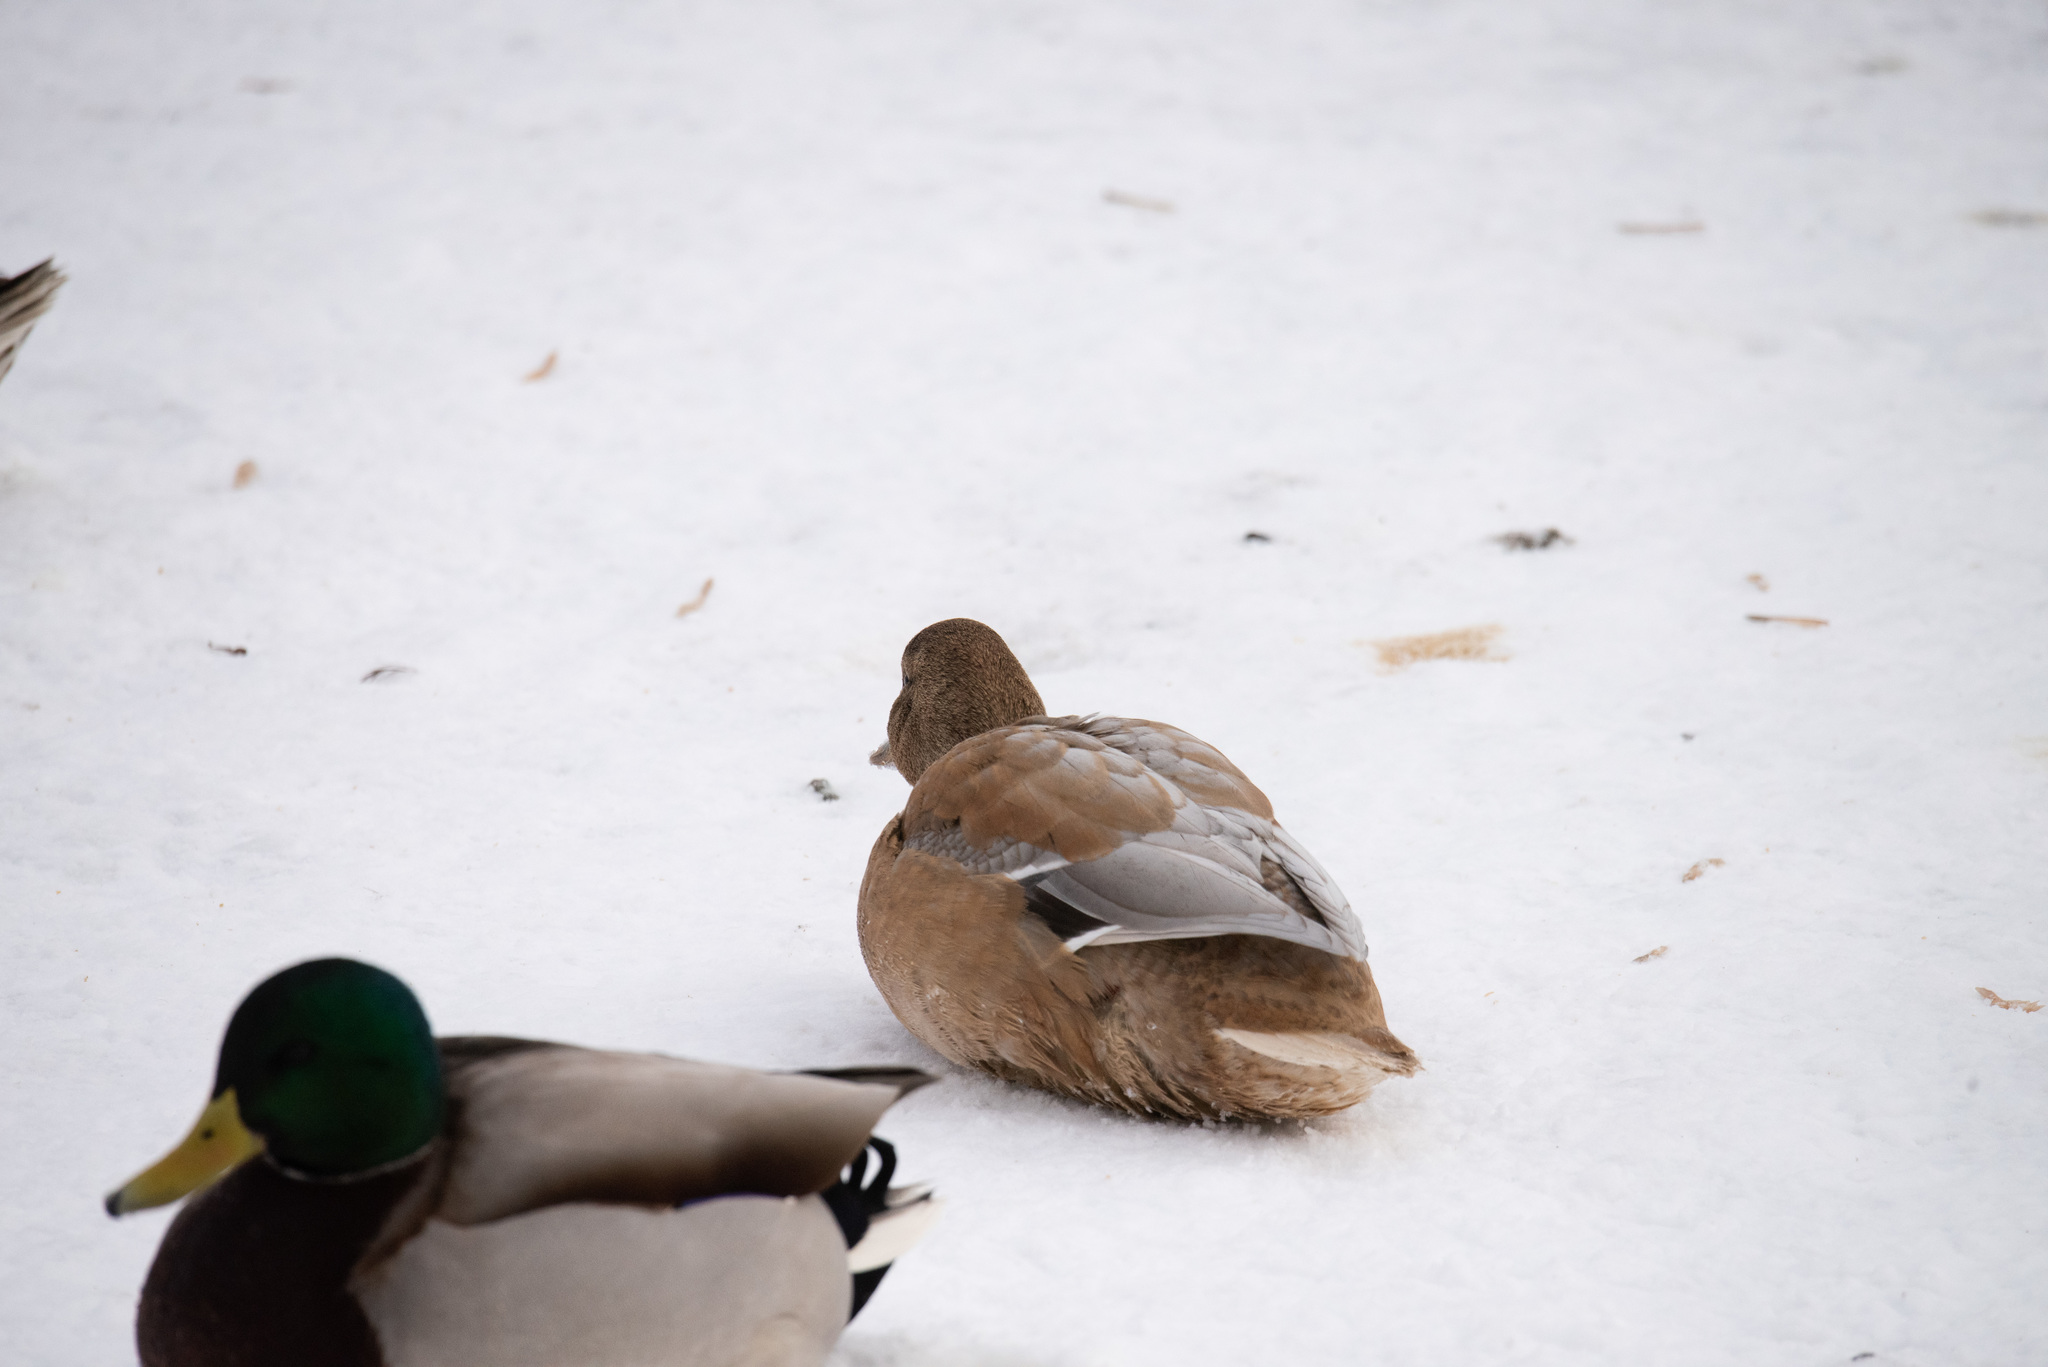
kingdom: Animalia
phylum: Chordata
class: Aves
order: Anseriformes
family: Anatidae
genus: Anas
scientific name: Anas platyrhynchos
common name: Mallard
